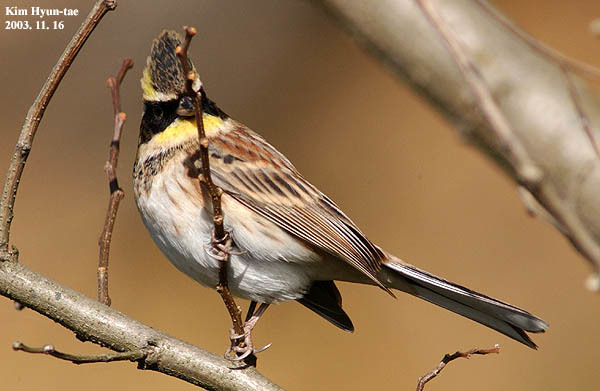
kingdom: Animalia
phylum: Chordata
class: Aves
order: Passeriformes
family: Emberizidae
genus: Emberiza
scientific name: Emberiza elegans
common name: Yellow-throated bunting
